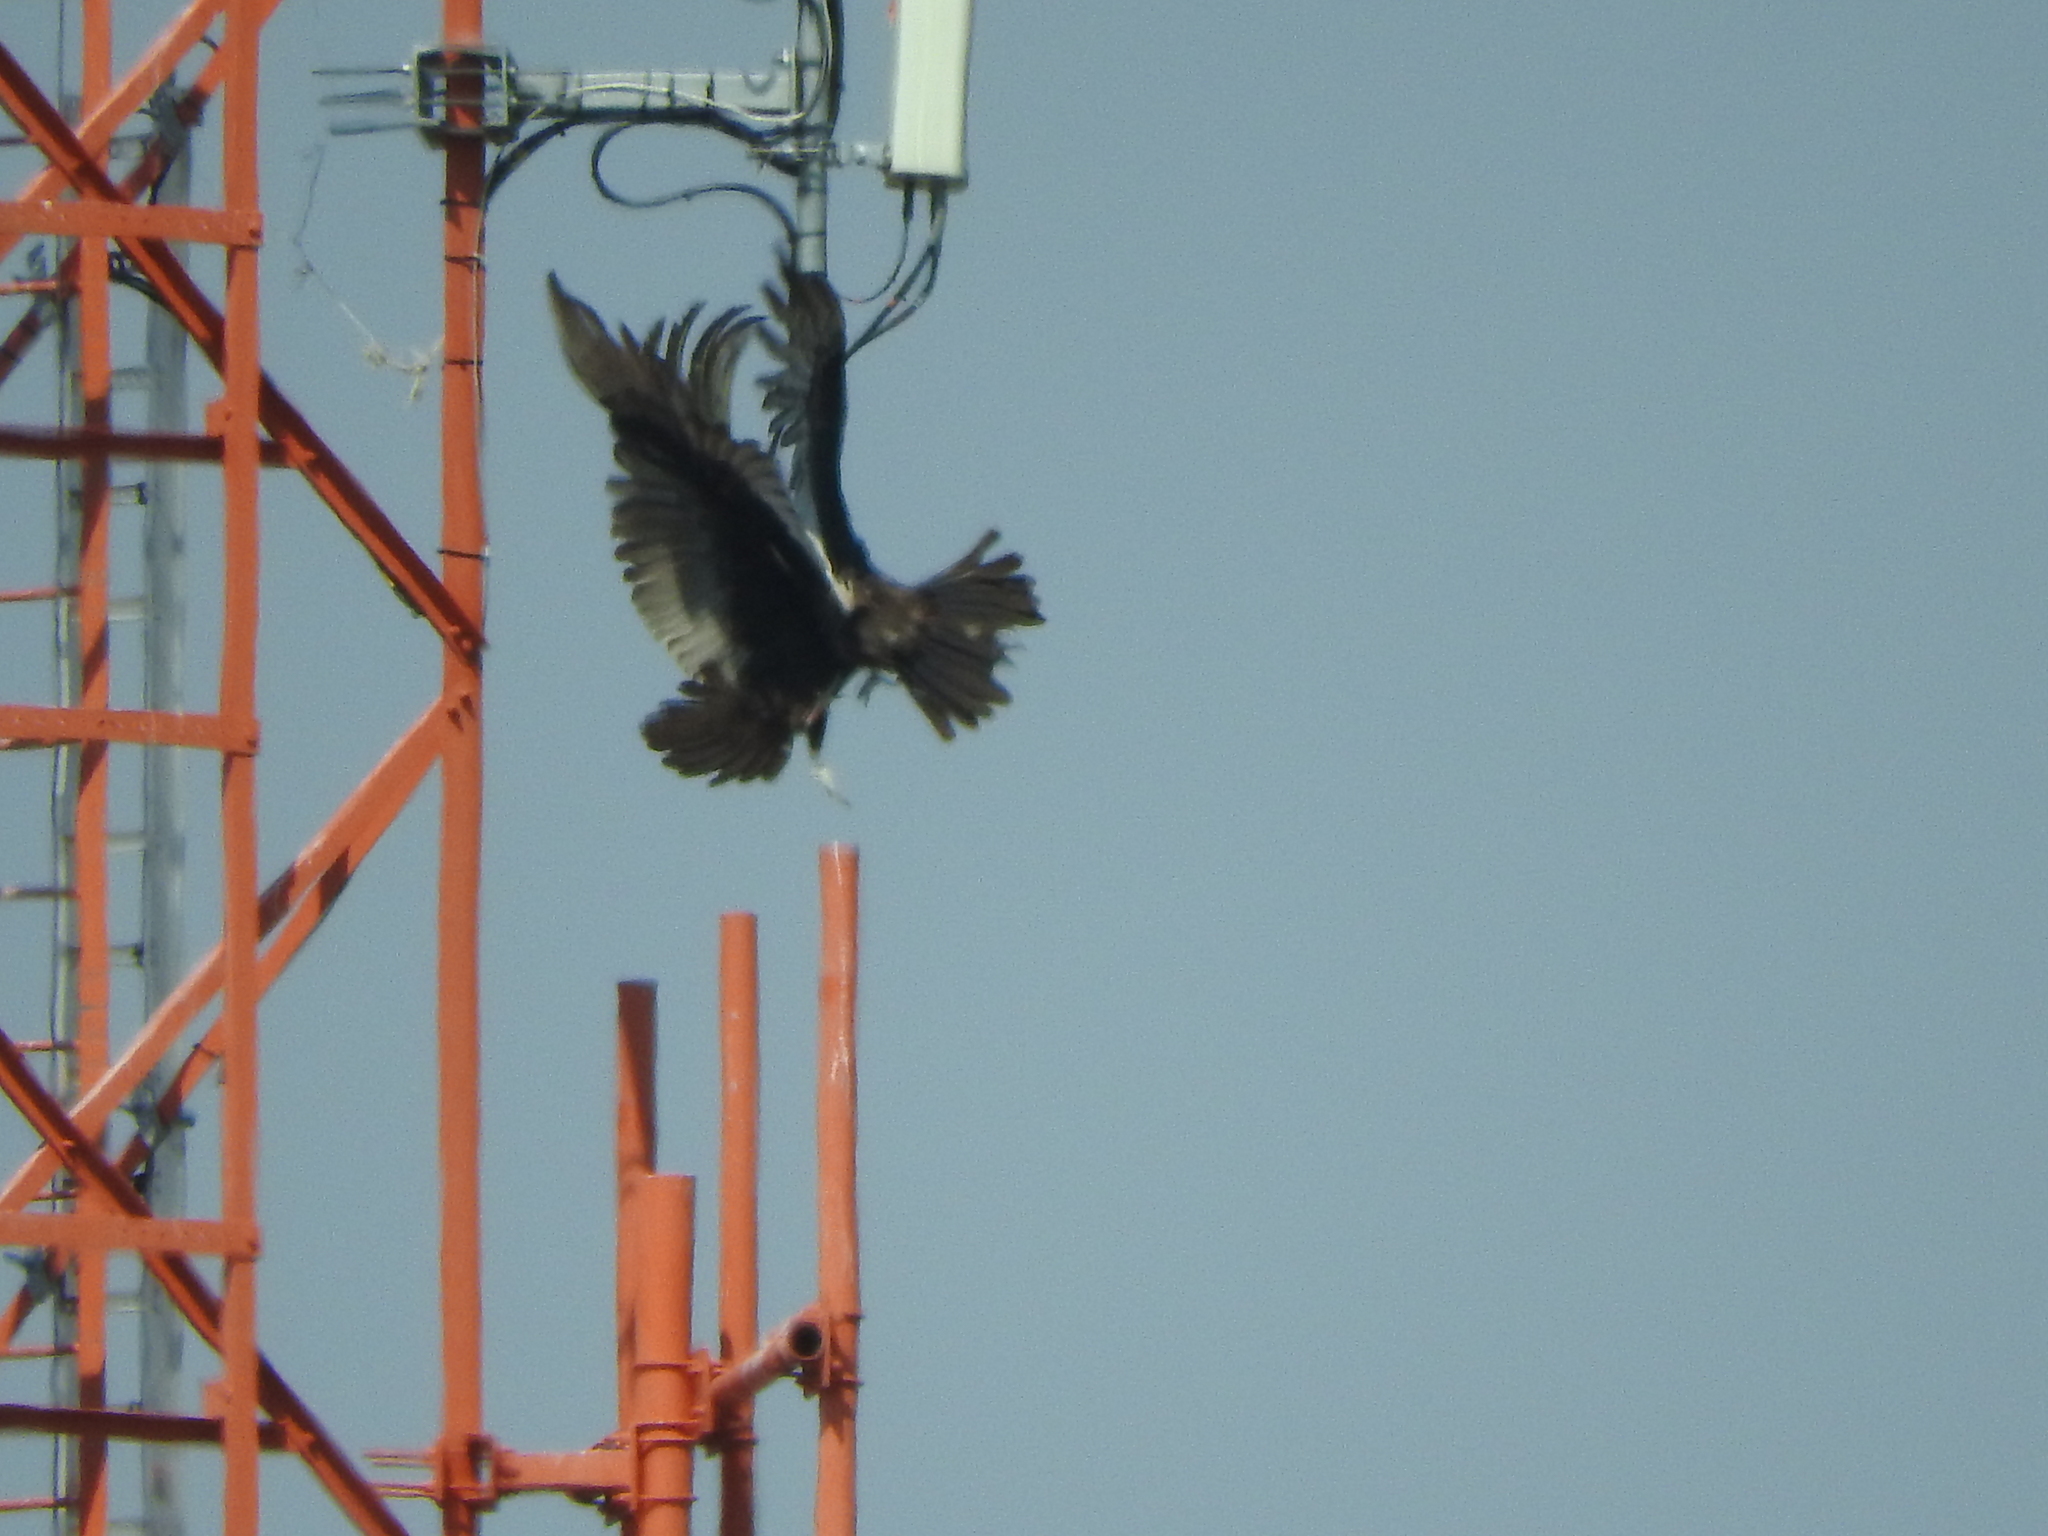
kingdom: Animalia
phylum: Chordata
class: Aves
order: Accipitriformes
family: Cathartidae
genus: Cathartes
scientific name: Cathartes aura
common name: Turkey vulture
